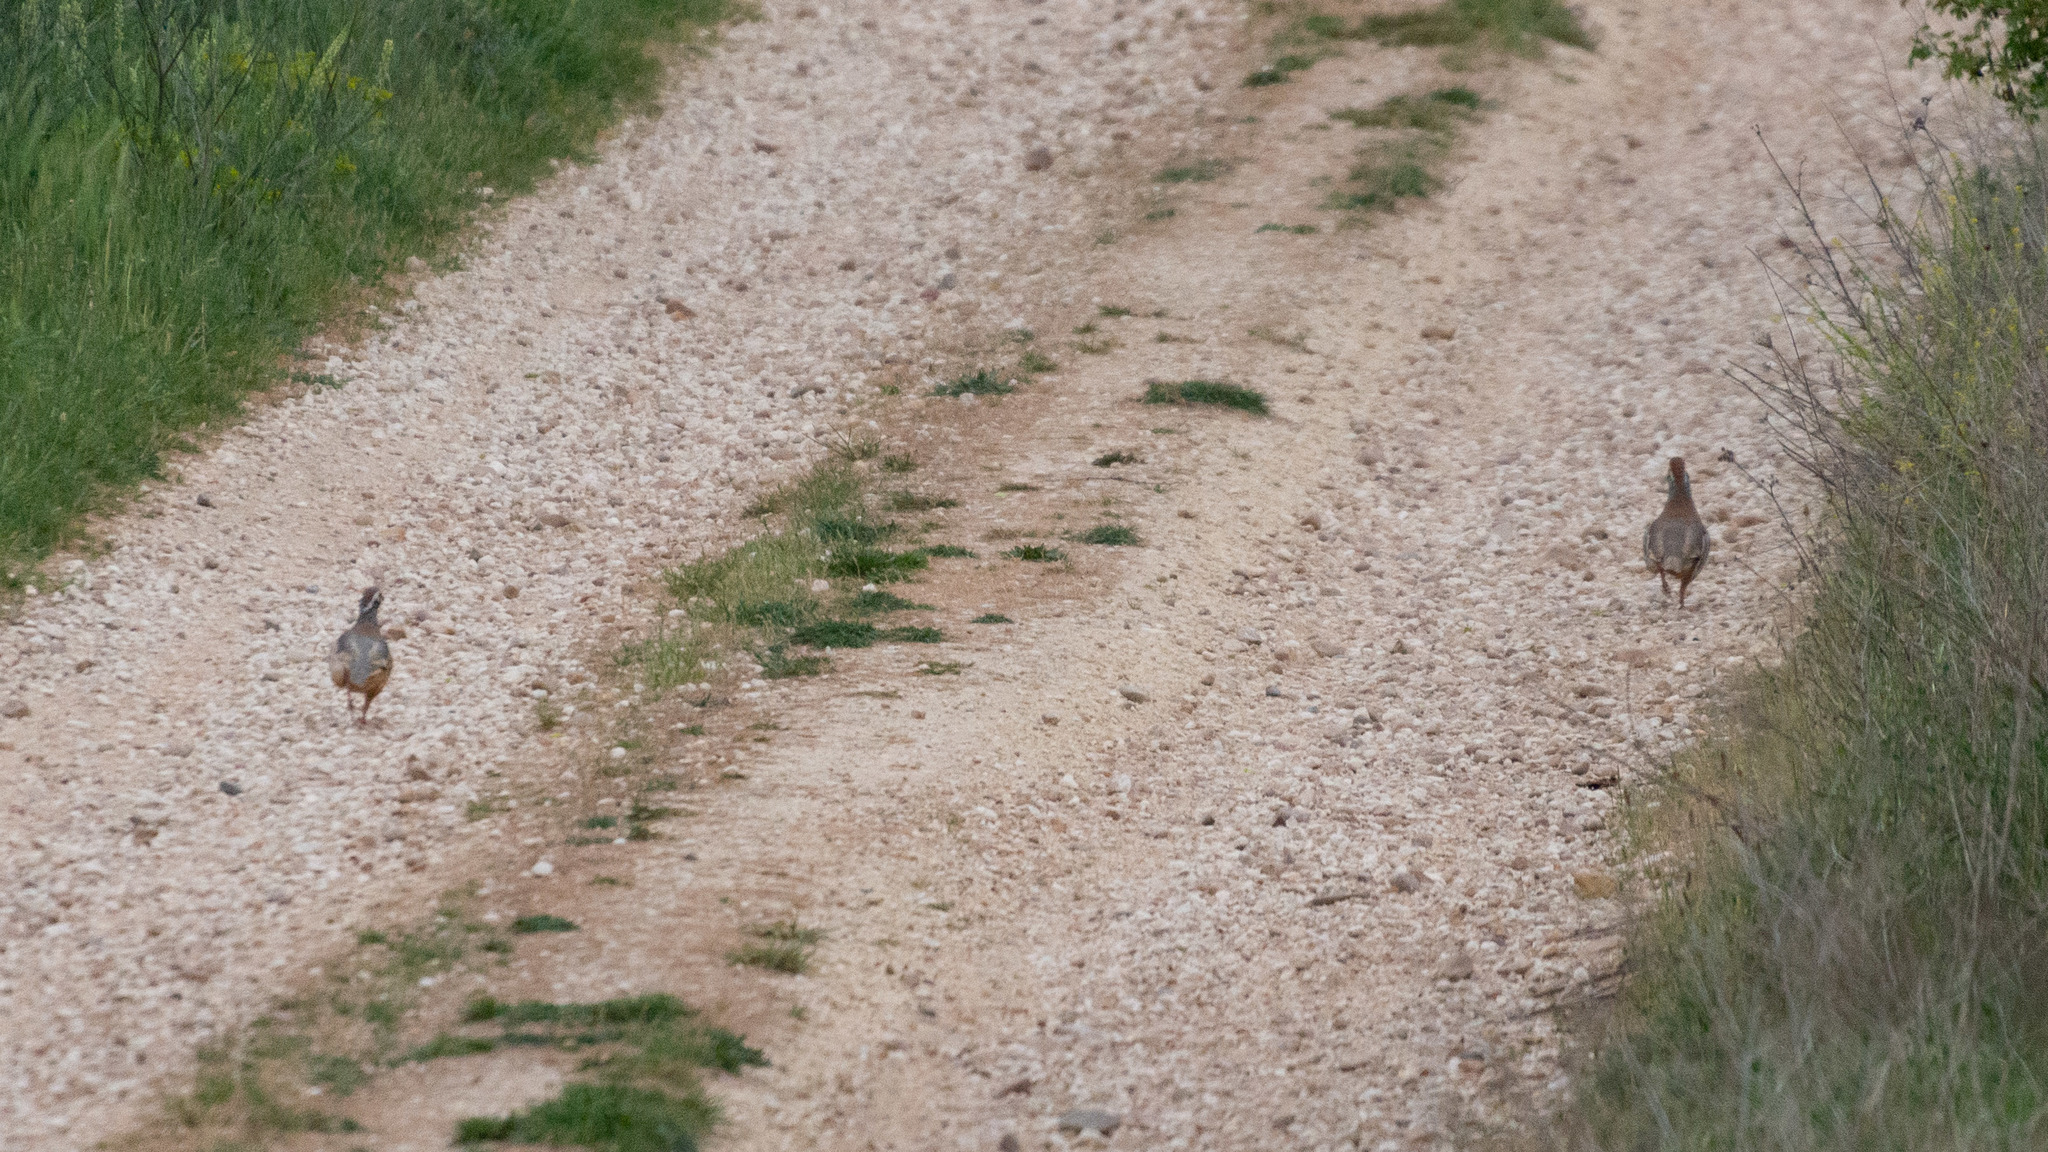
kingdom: Animalia
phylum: Chordata
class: Aves
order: Galliformes
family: Phasianidae
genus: Alectoris
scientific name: Alectoris rufa
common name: Red-legged partridge
